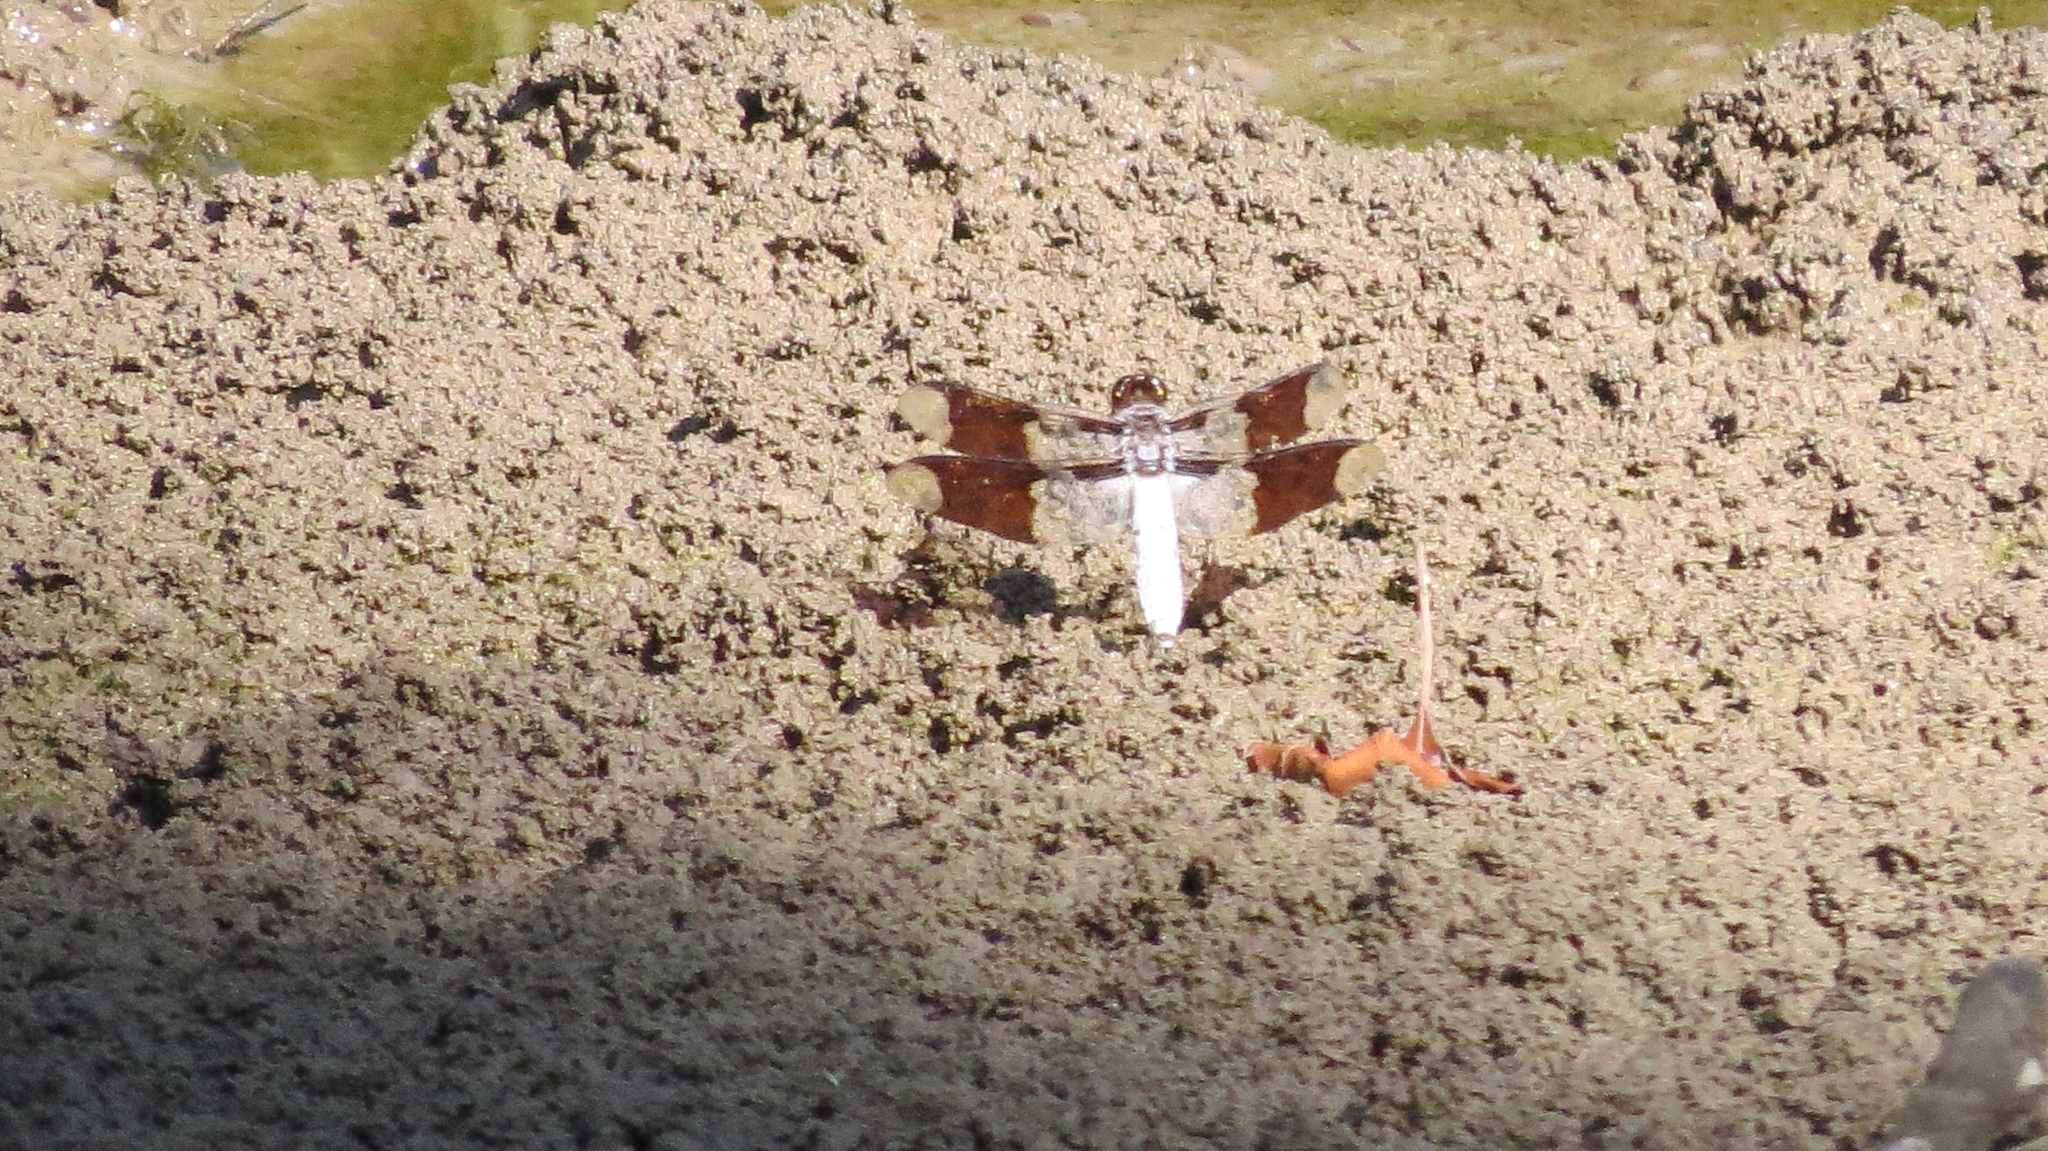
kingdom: Animalia
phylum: Arthropoda
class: Insecta
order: Odonata
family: Libellulidae
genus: Plathemis
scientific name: Plathemis lydia
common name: Common whitetail
